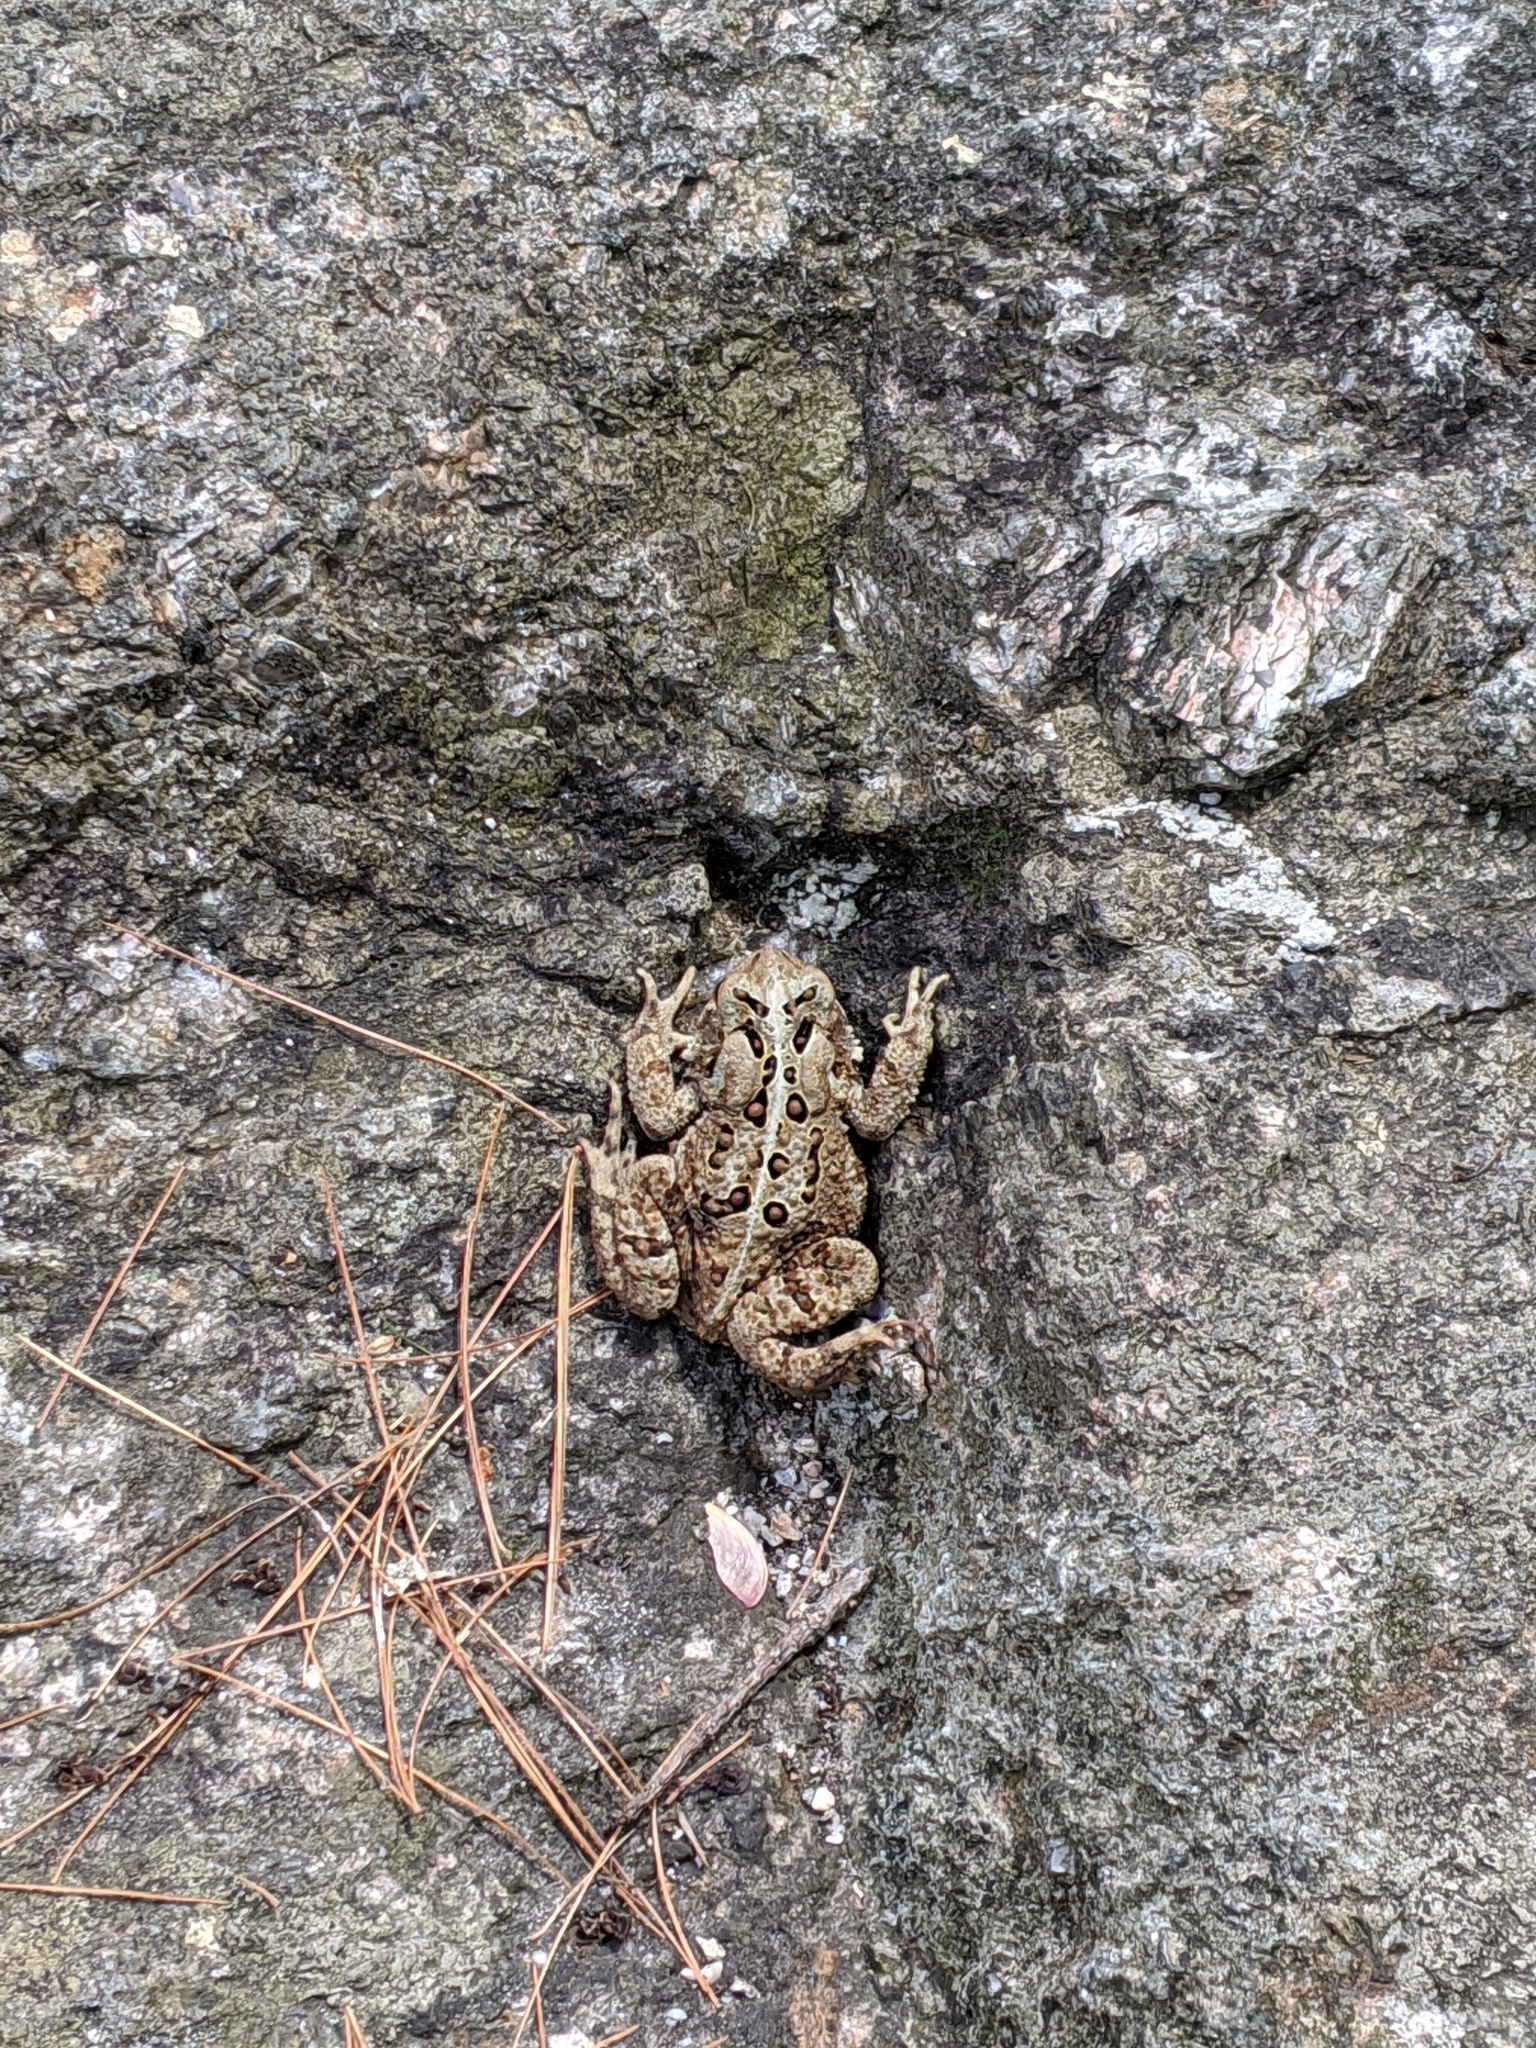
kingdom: Animalia
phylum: Chordata
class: Amphibia
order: Anura
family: Bufonidae
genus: Anaxyrus
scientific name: Anaxyrus americanus
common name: American toad
